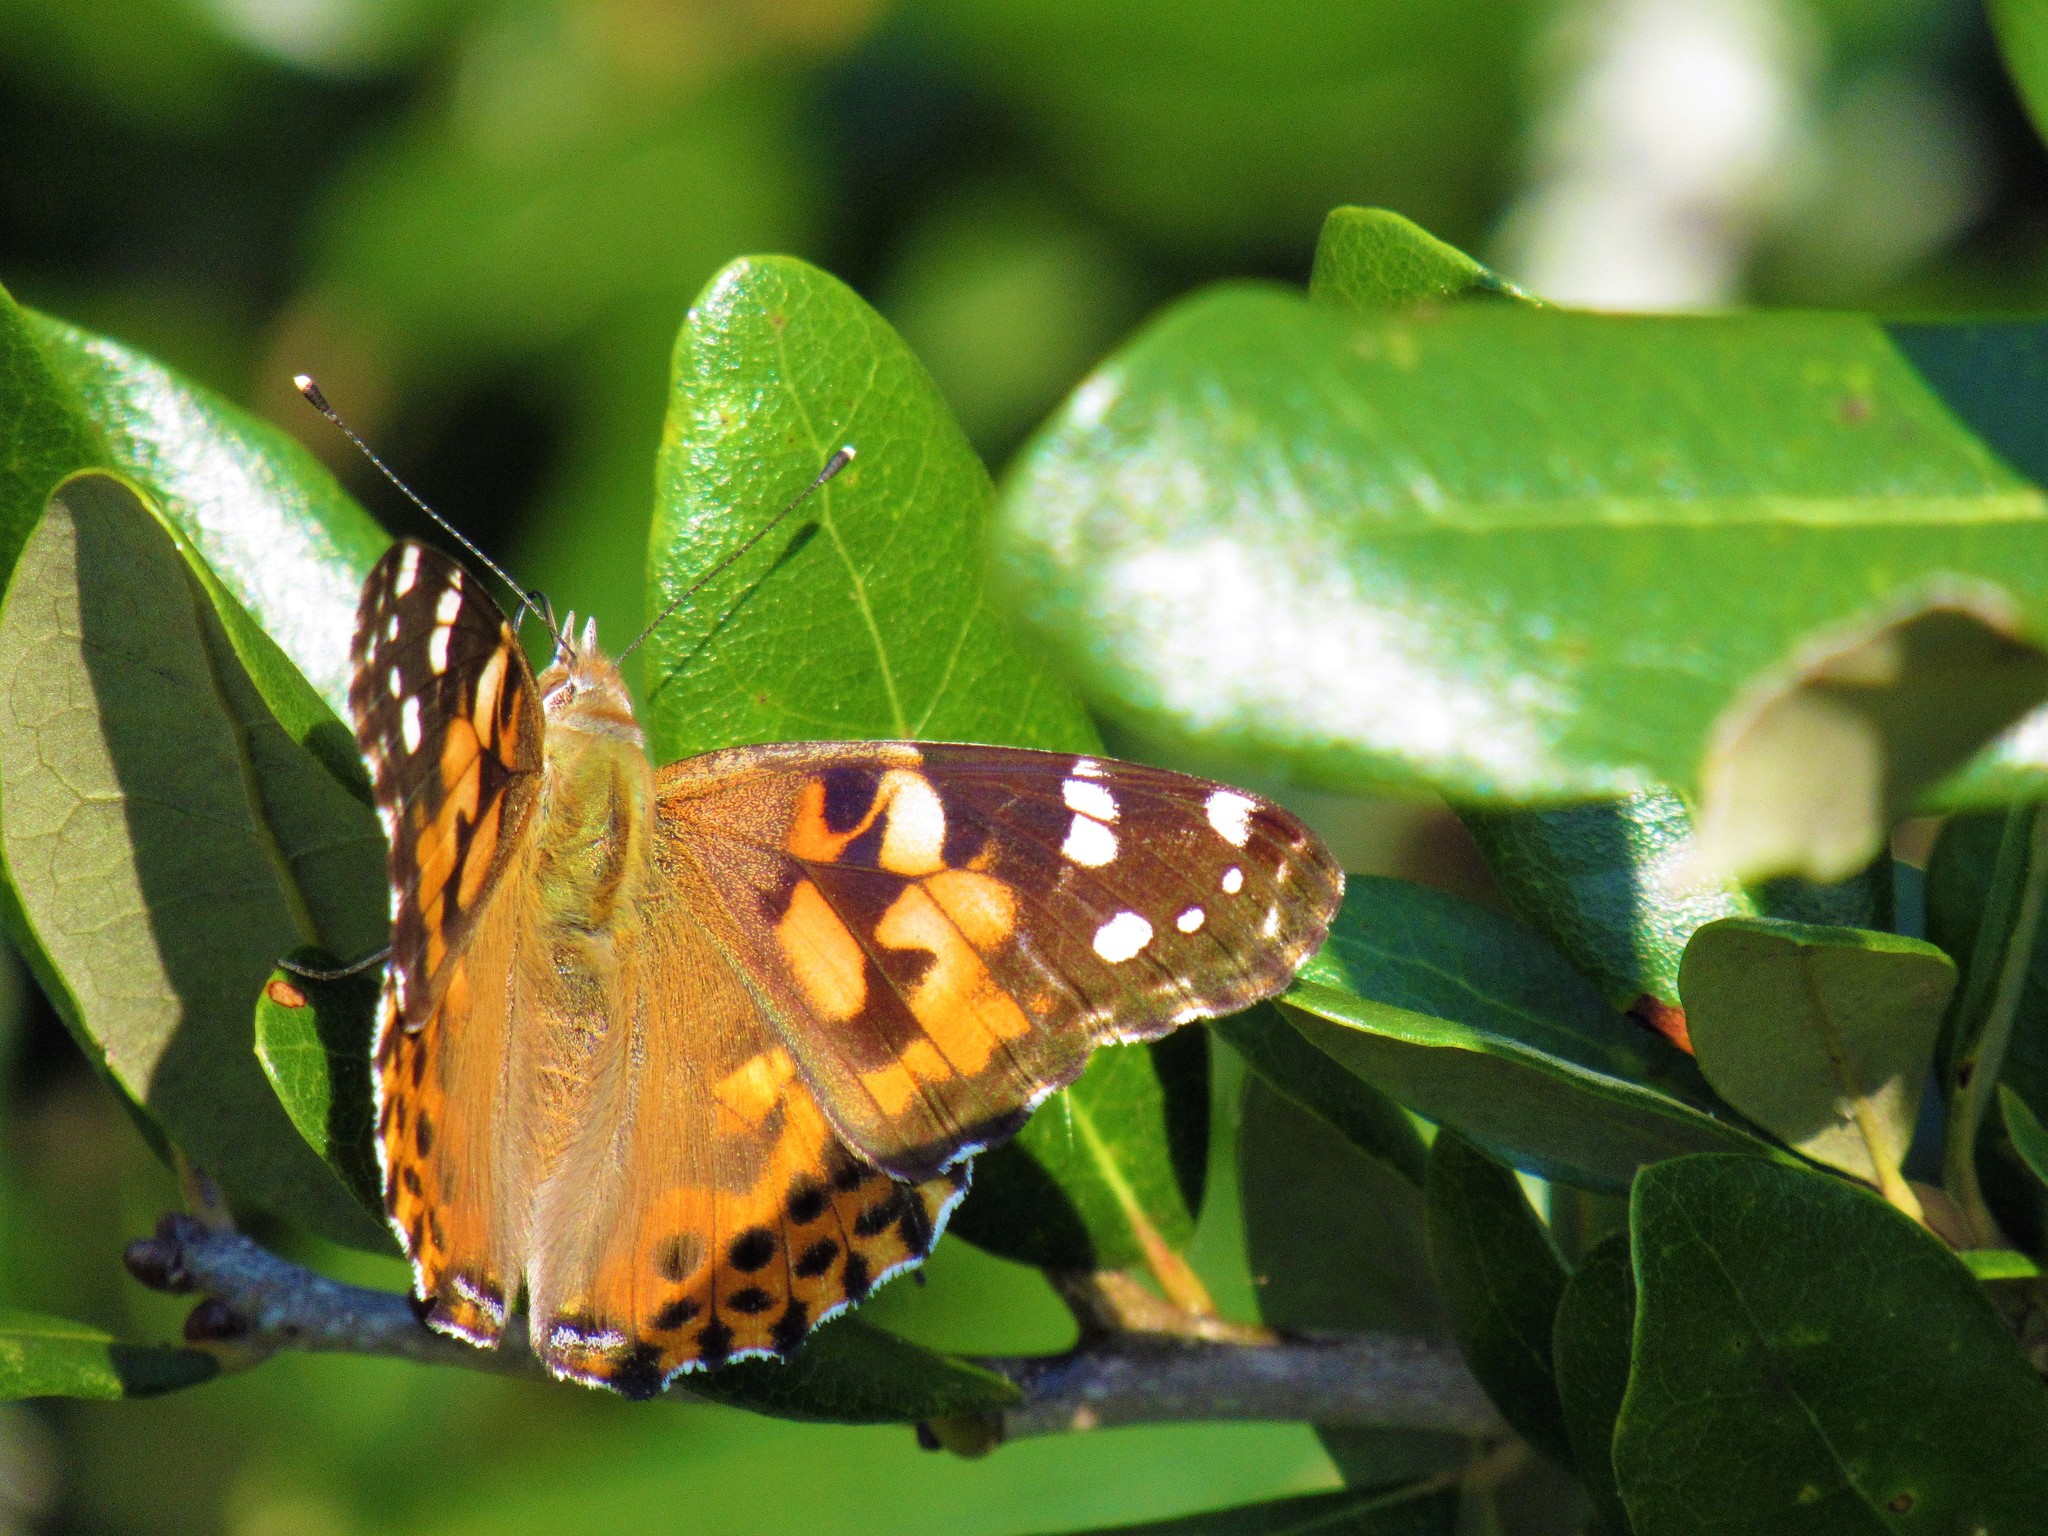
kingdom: Animalia
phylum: Arthropoda
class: Insecta
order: Lepidoptera
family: Nymphalidae
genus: Vanessa
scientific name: Vanessa cardui
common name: Painted lady
